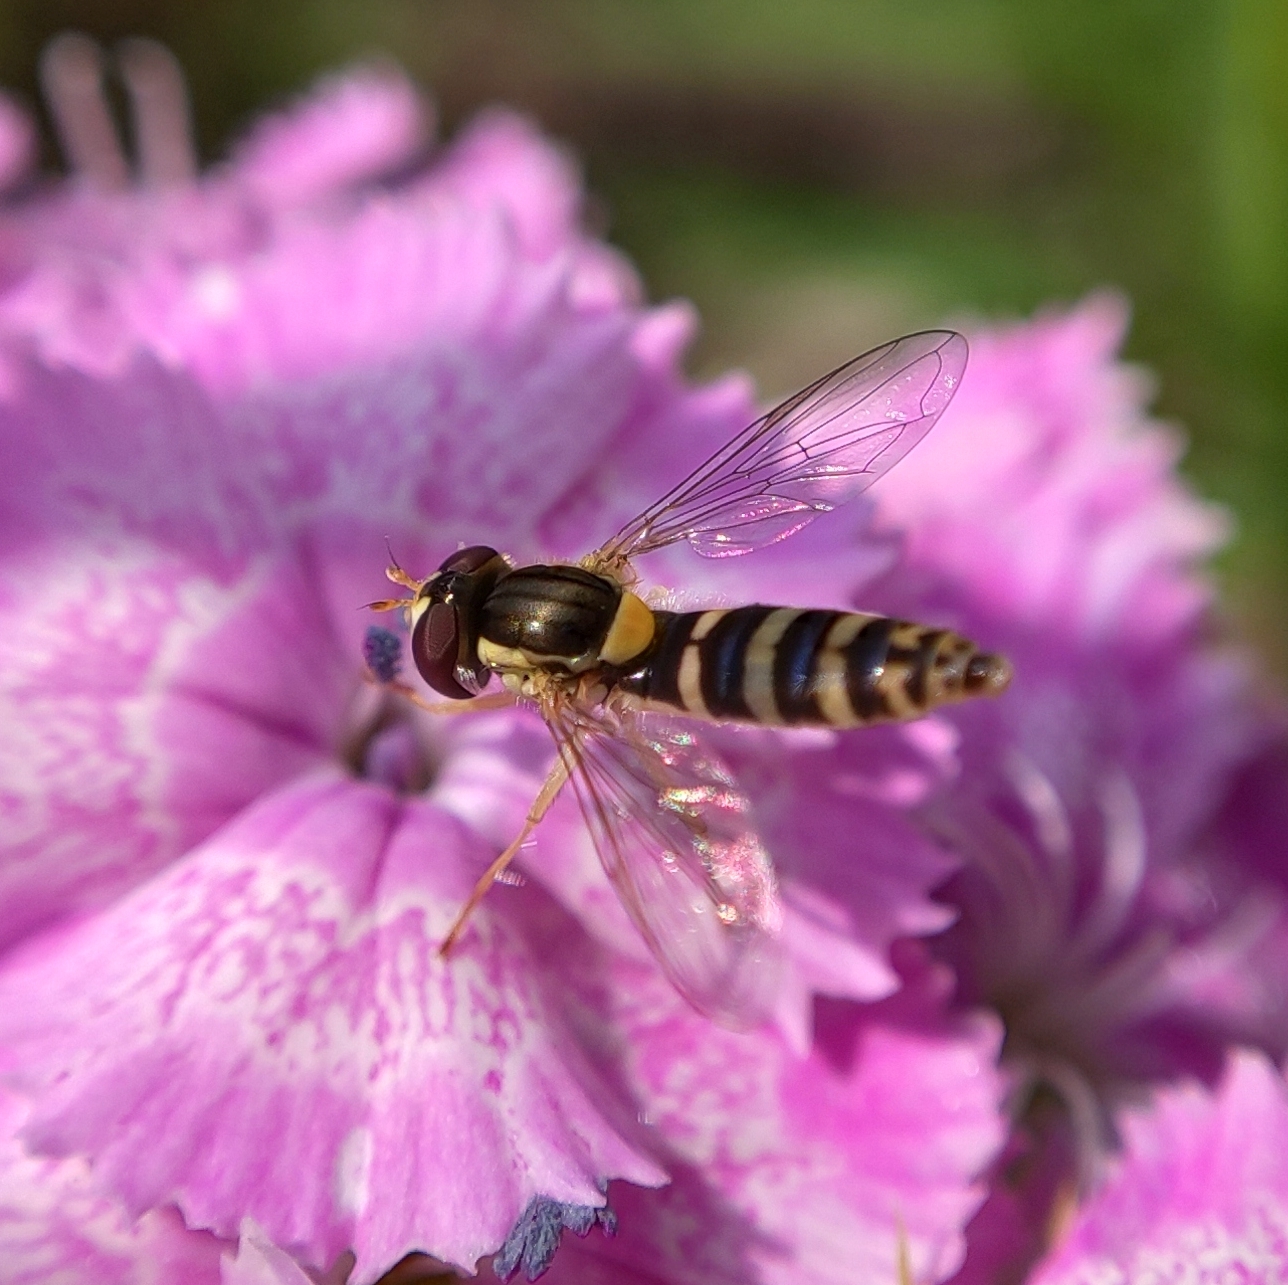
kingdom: Animalia
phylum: Arthropoda
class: Insecta
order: Diptera
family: Syrphidae
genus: Sphaerophoria
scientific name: Sphaerophoria
